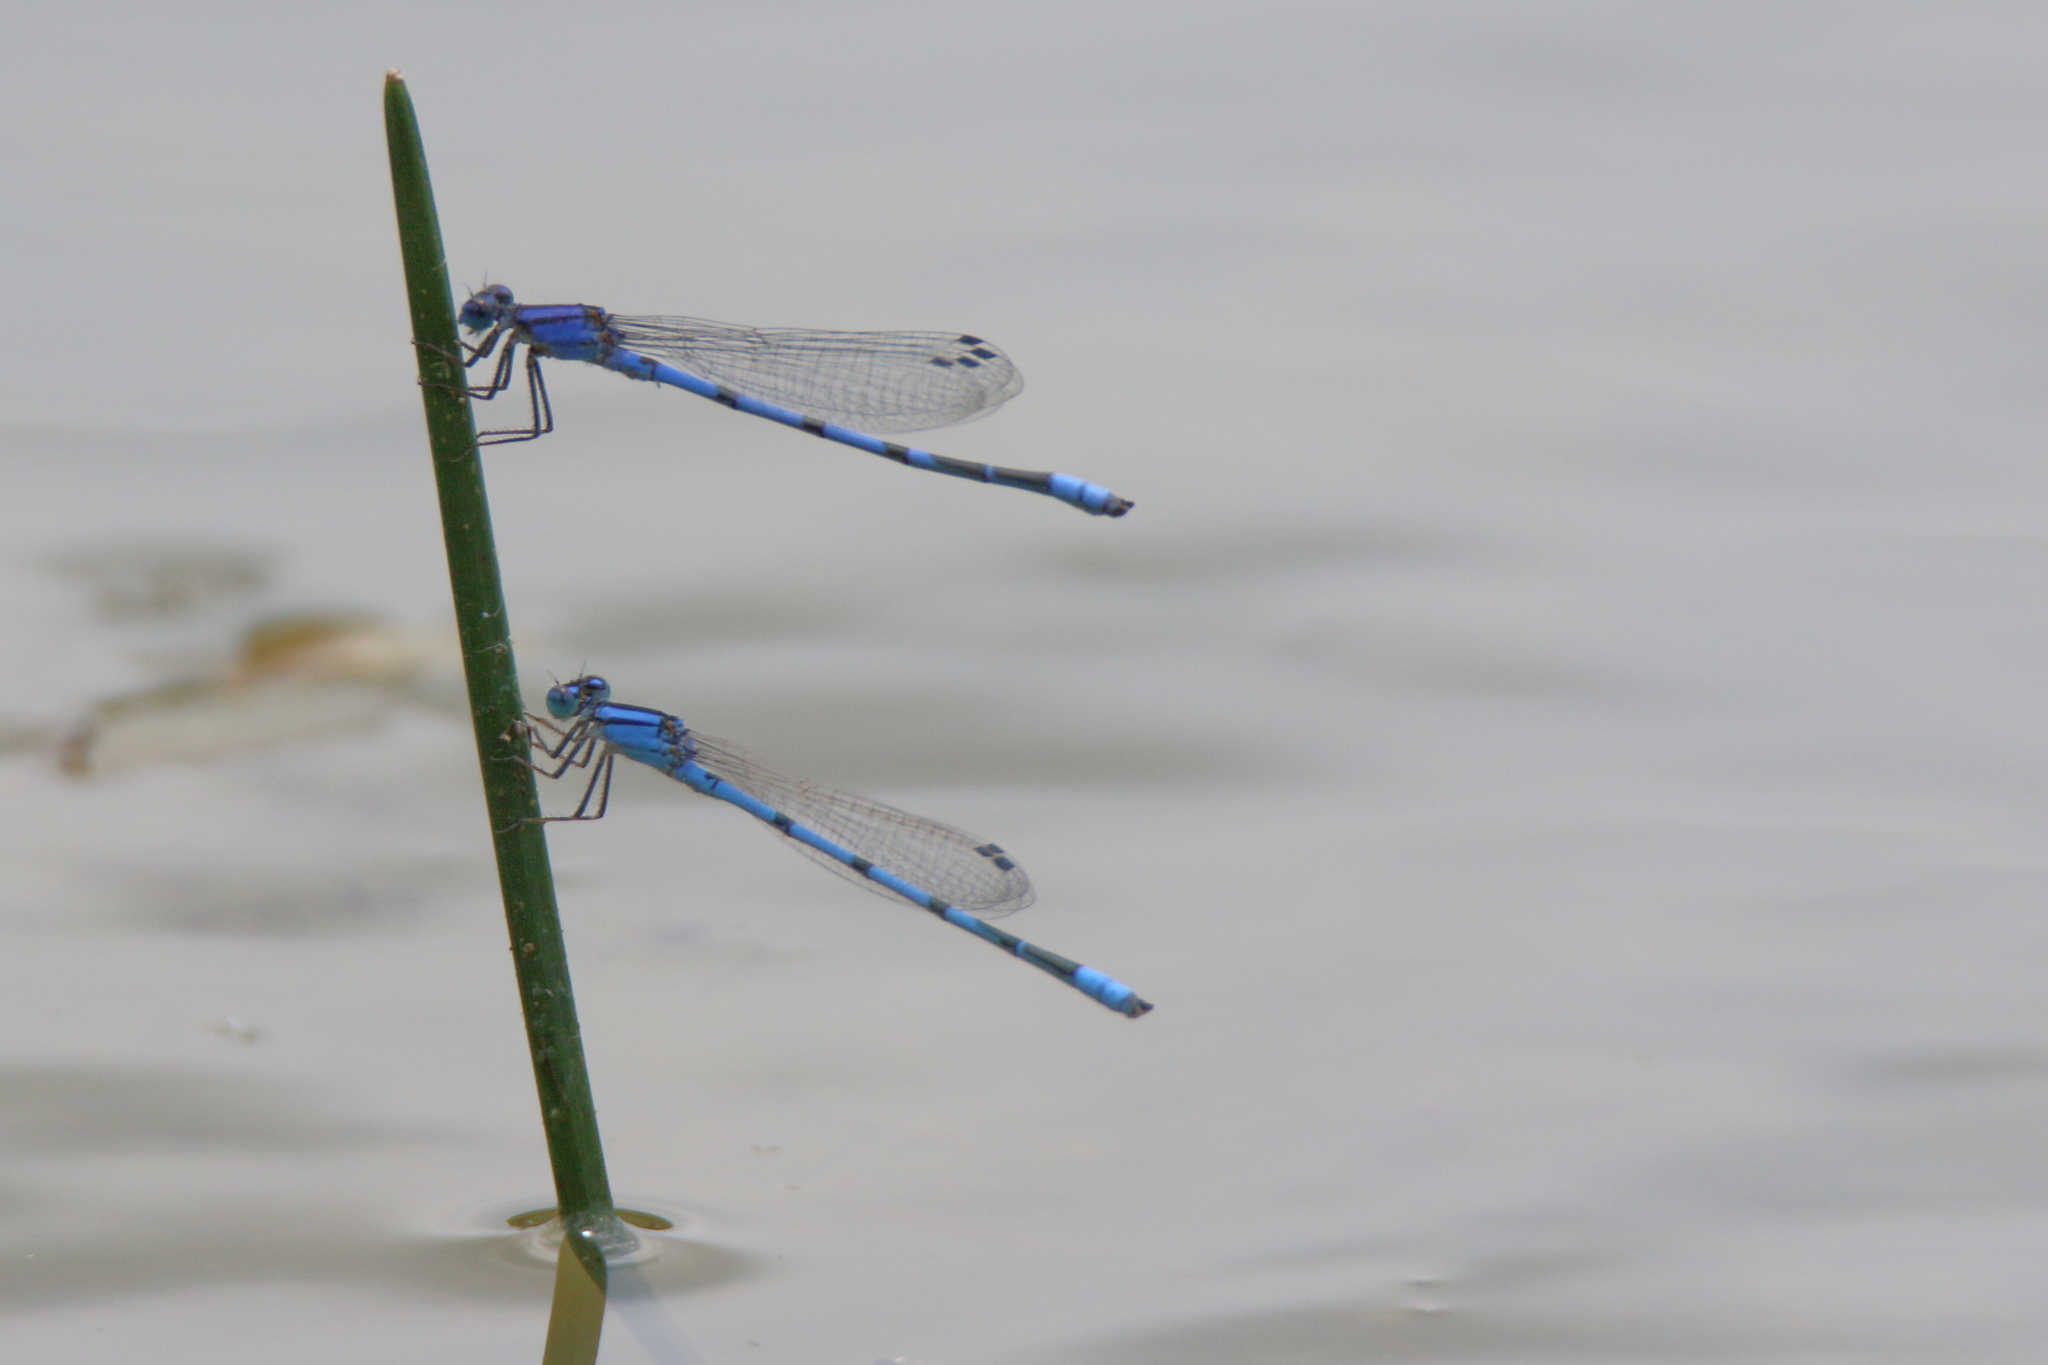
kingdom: Animalia
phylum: Arthropoda
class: Insecta
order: Odonata
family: Coenagrionidae
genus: Enallagma
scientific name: Enallagma civile
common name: Damselfly
